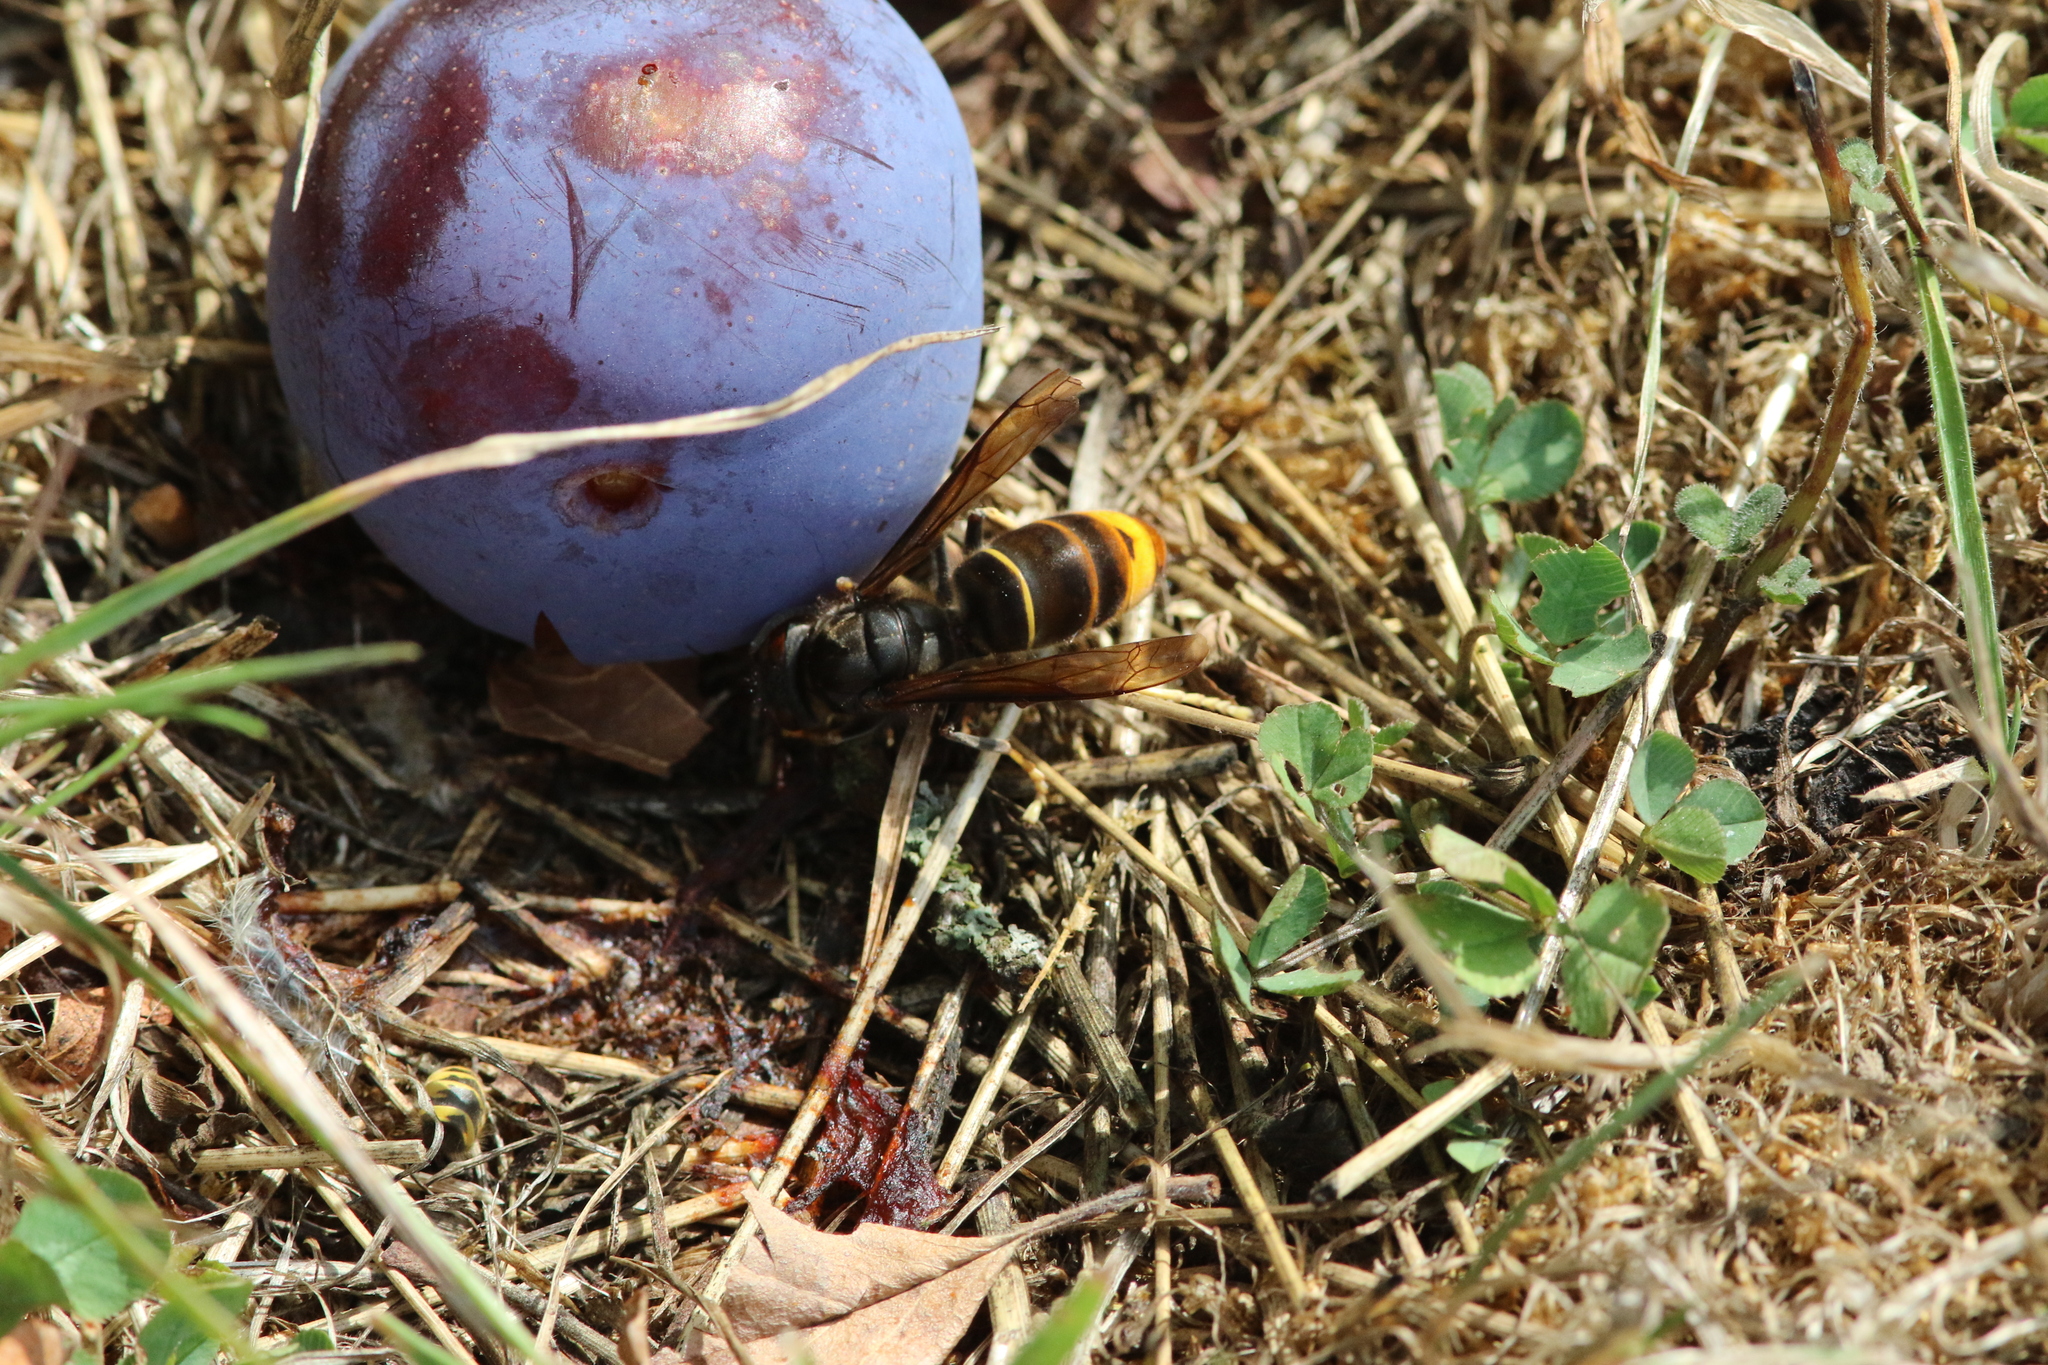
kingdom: Animalia
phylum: Arthropoda
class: Insecta
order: Hymenoptera
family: Vespidae
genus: Vespa
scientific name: Vespa velutina
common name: Asian hornet
